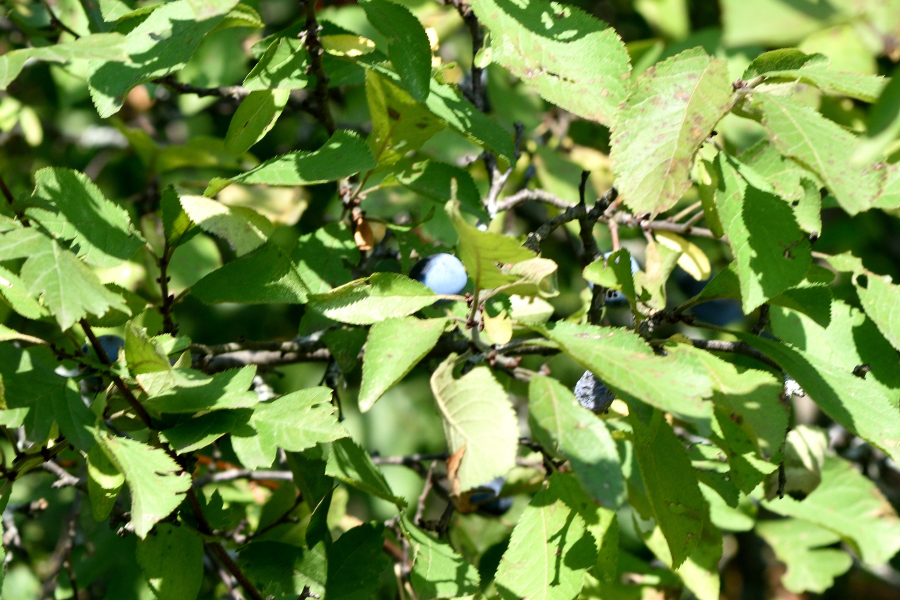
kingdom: Plantae
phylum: Tracheophyta
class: Magnoliopsida
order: Rosales
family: Rosaceae
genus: Prunus
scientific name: Prunus spinosa
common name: Blackthorn
